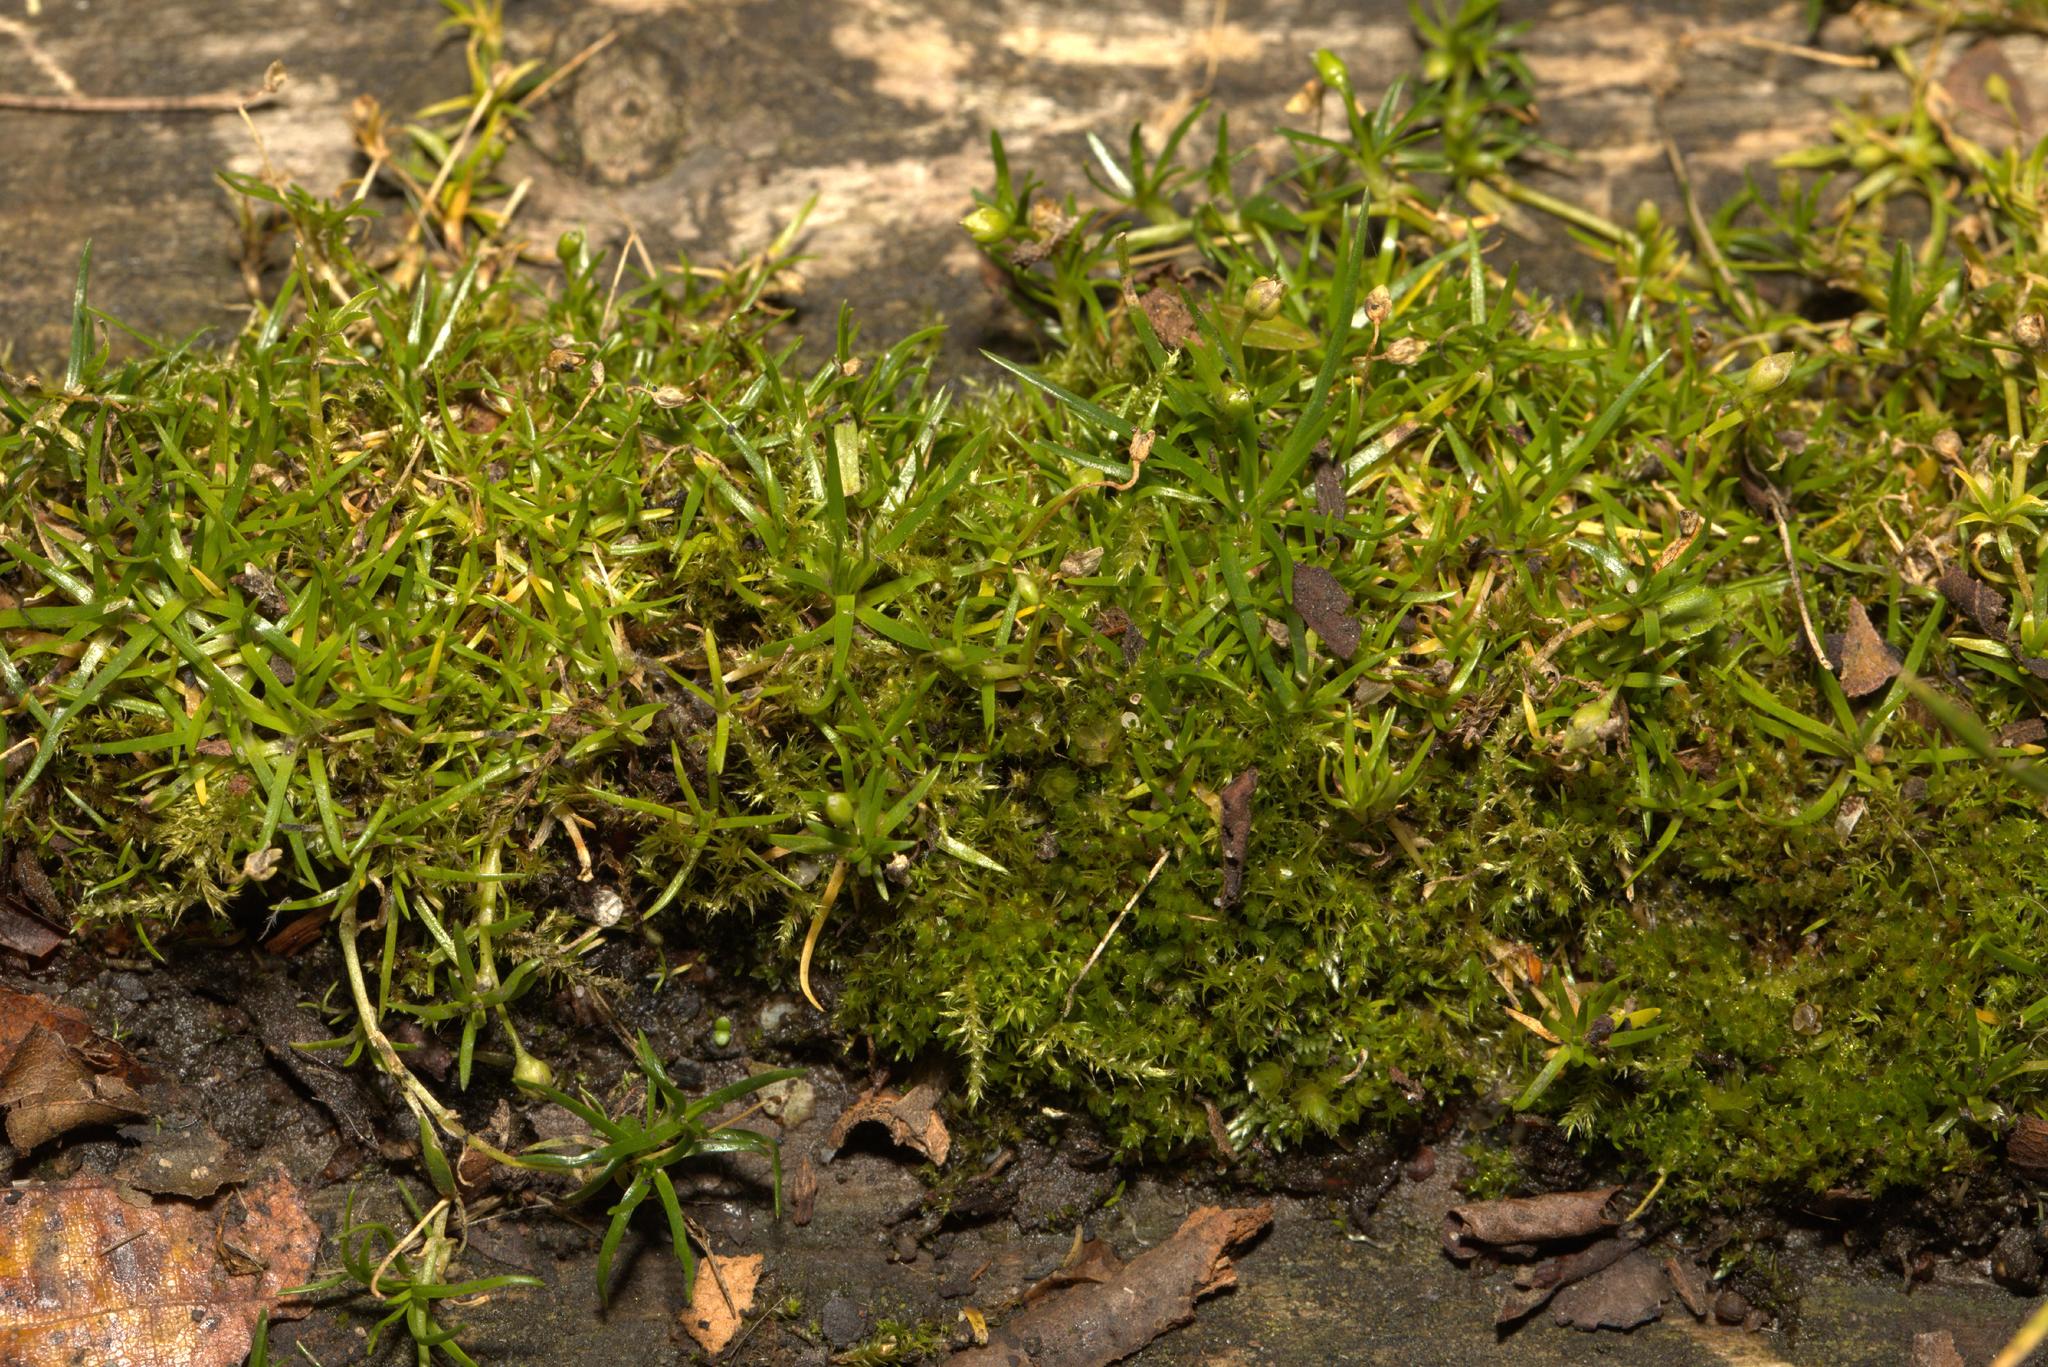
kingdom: Plantae
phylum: Tracheophyta
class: Magnoliopsida
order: Caryophyllales
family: Caryophyllaceae
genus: Sagina
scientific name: Sagina procumbens
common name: Procumbent pearlwort
